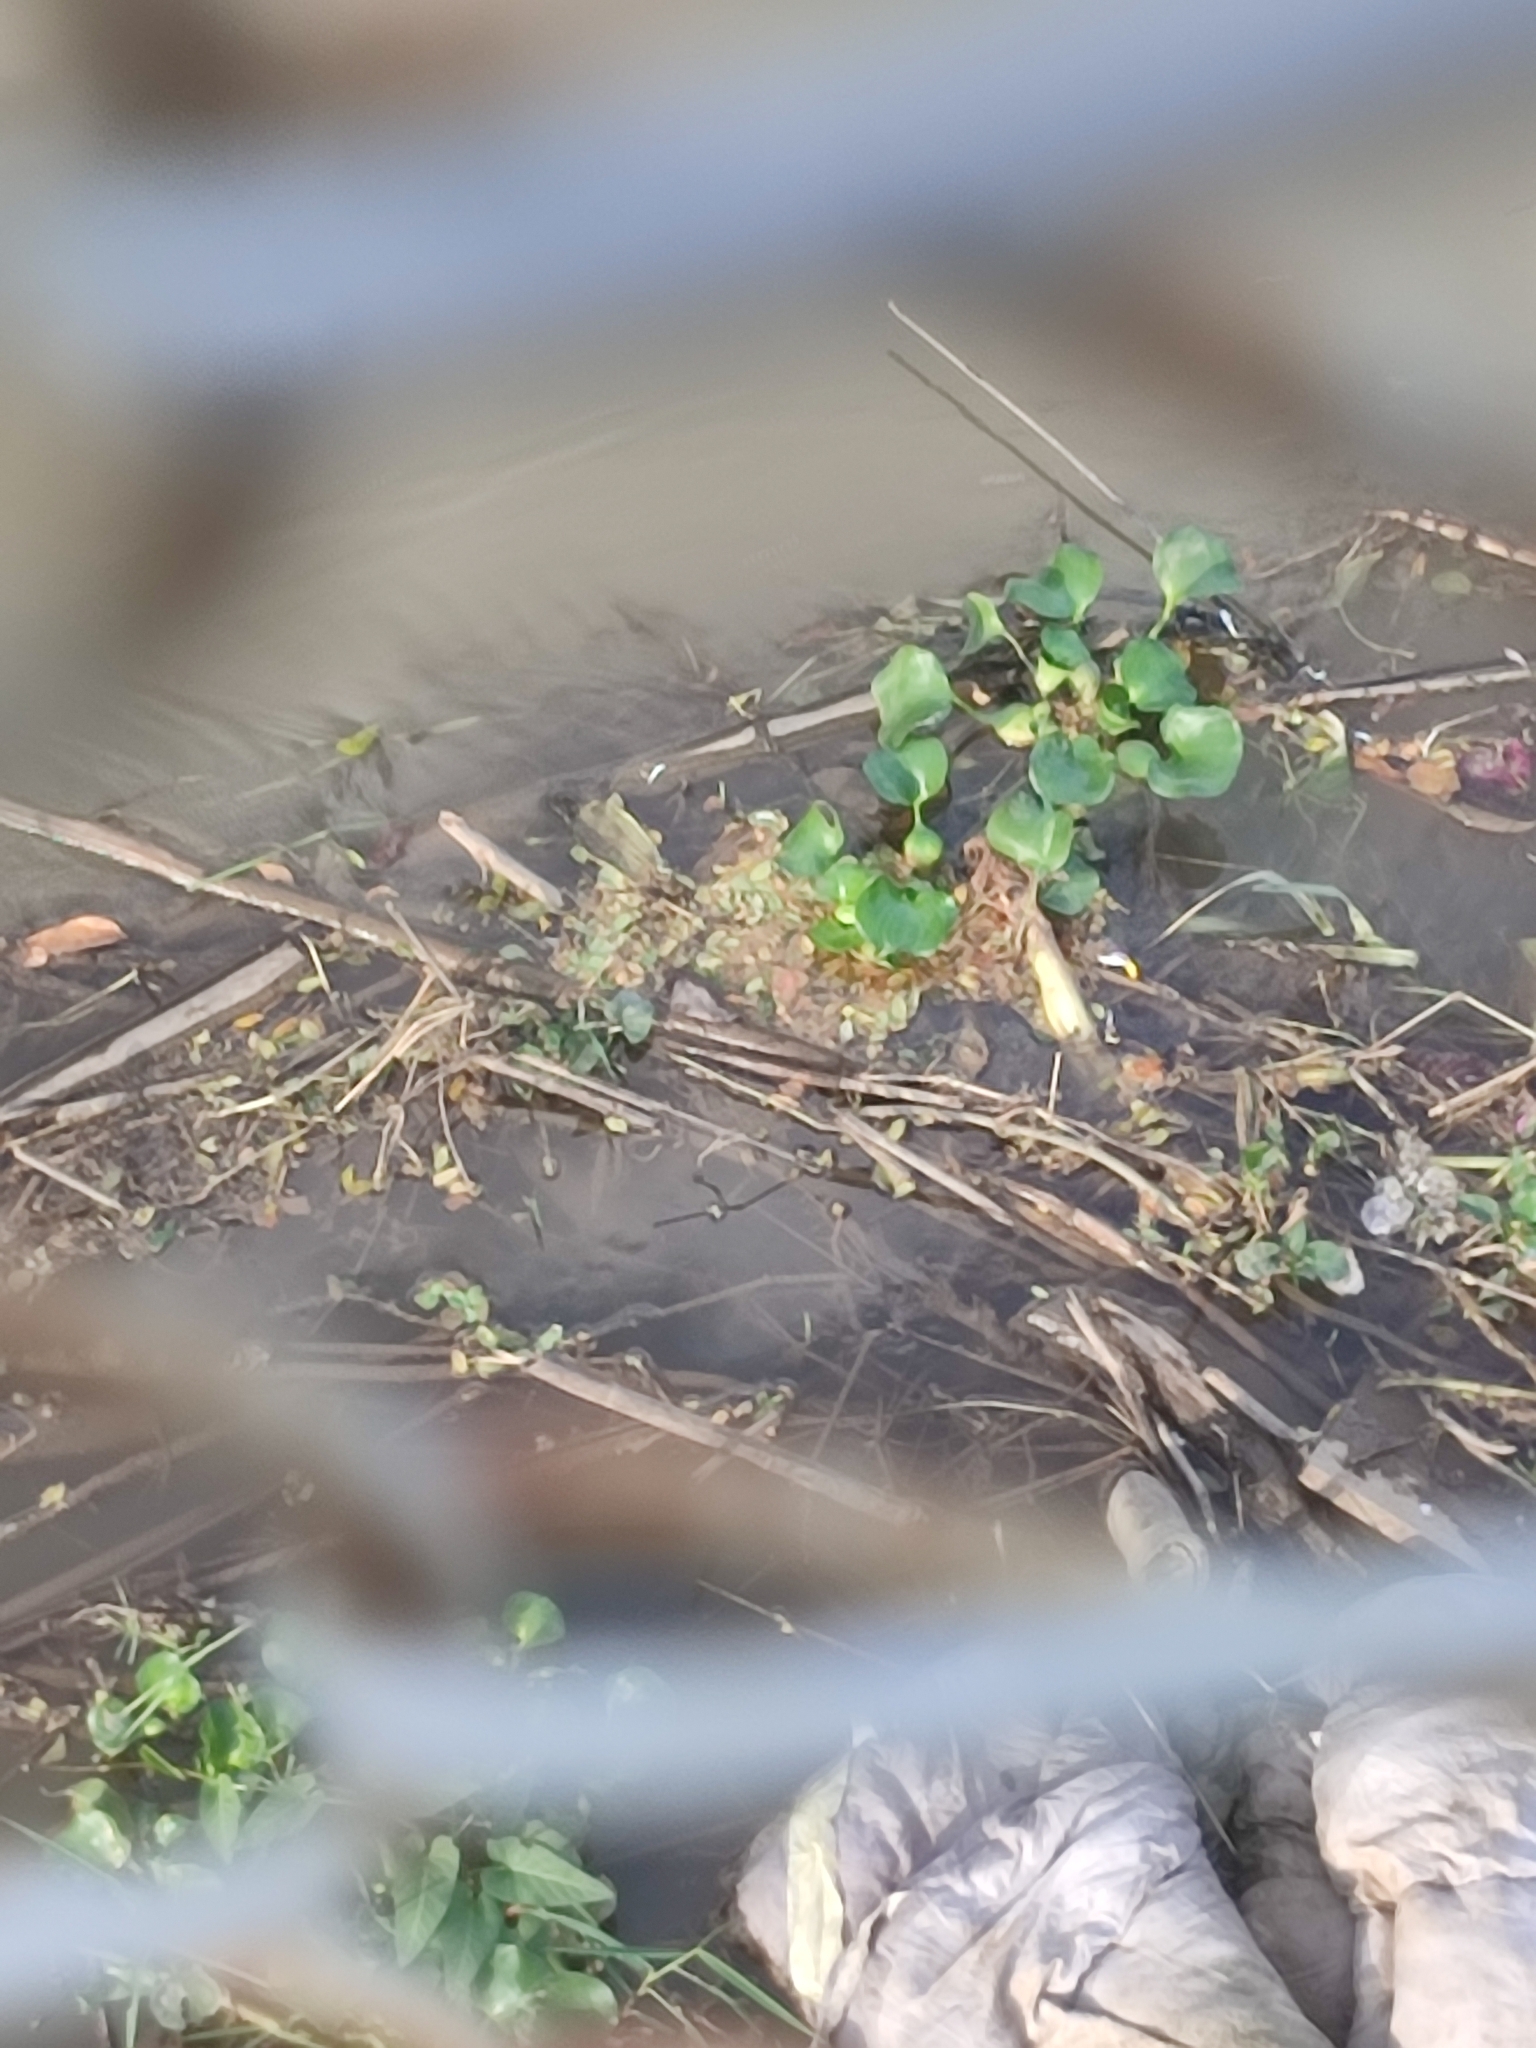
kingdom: Plantae
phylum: Tracheophyta
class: Liliopsida
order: Commelinales
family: Pontederiaceae
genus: Pontederia
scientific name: Pontederia crassipes
